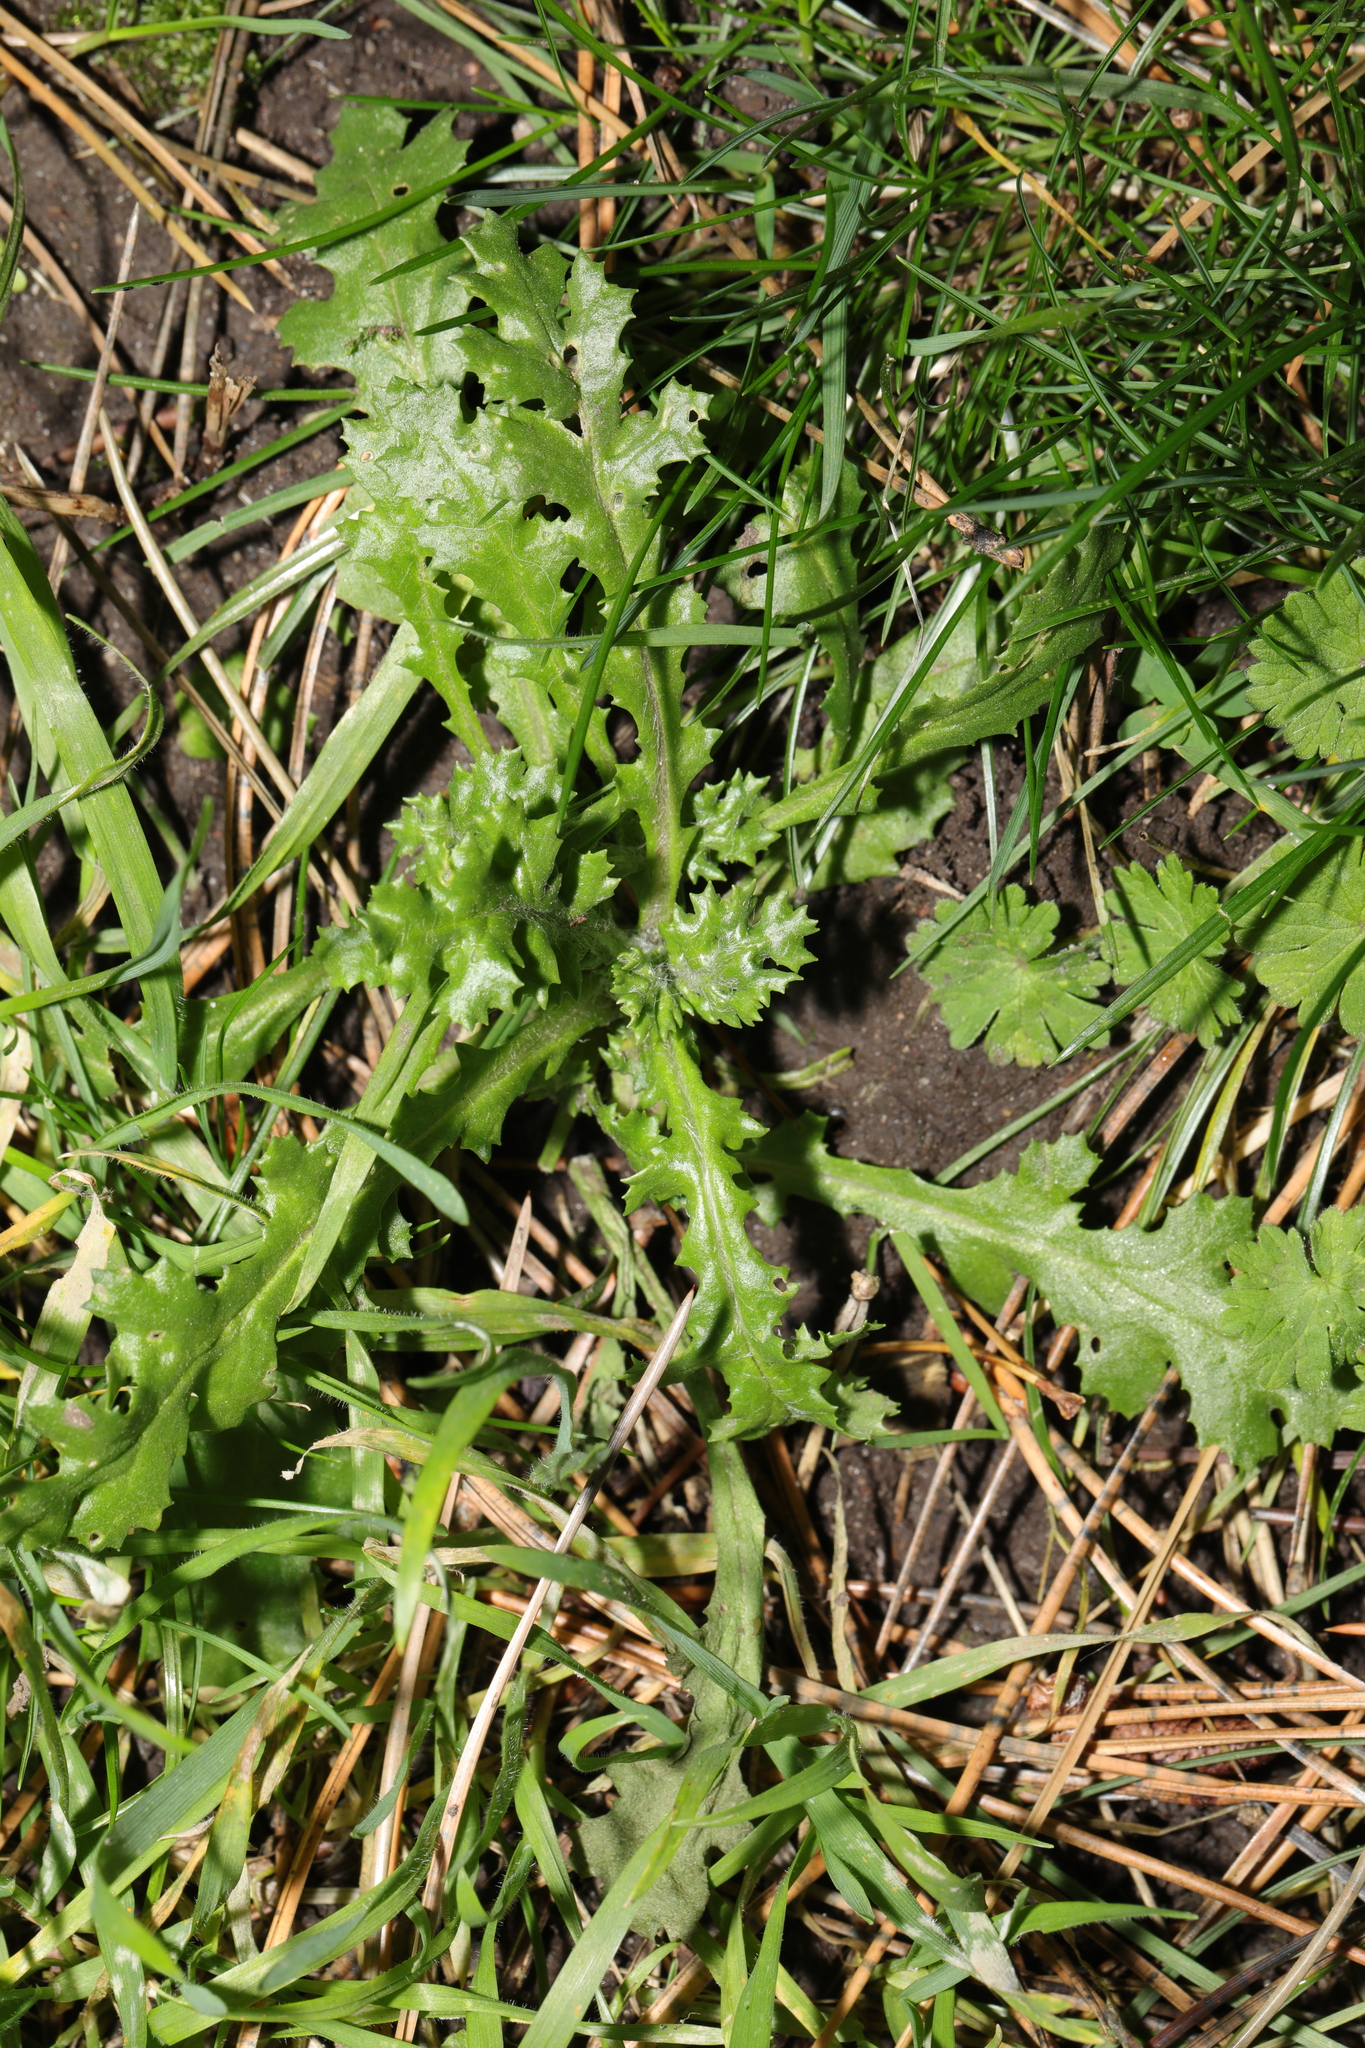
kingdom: Plantae
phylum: Tracheophyta
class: Magnoliopsida
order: Asterales
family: Asteraceae
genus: Senecio
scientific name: Senecio vulgaris
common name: Old-man-in-the-spring
